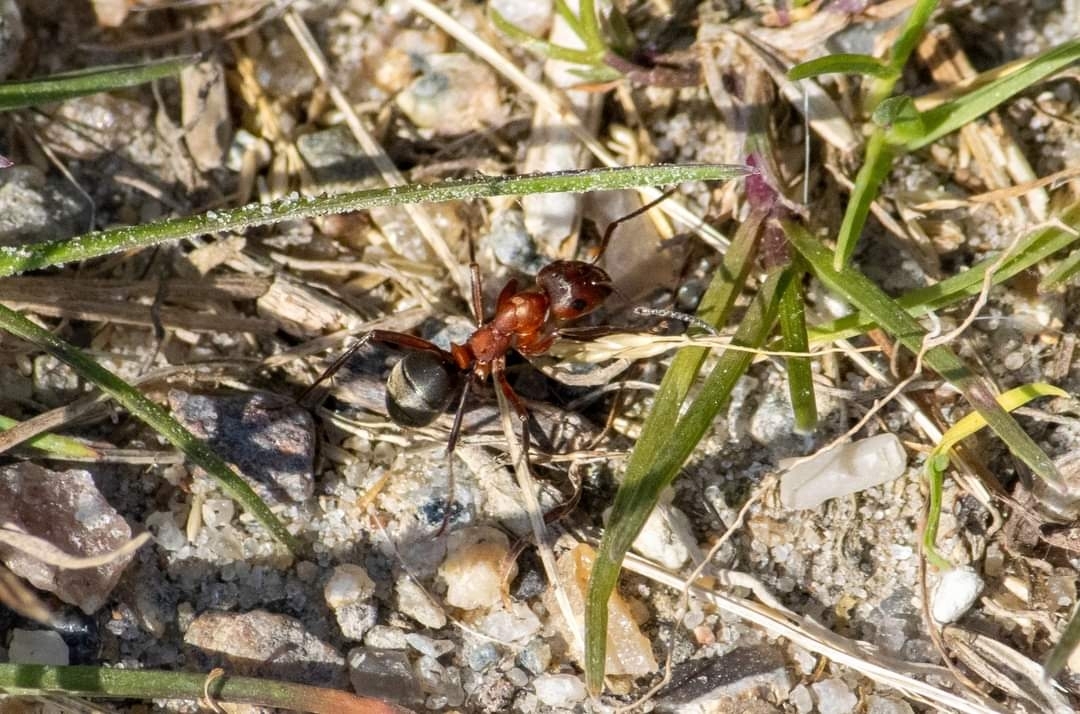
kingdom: Animalia
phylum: Arthropoda
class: Insecta
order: Hymenoptera
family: Formicidae
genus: Formica
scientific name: Formica sanguinea
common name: Blood-red ant
